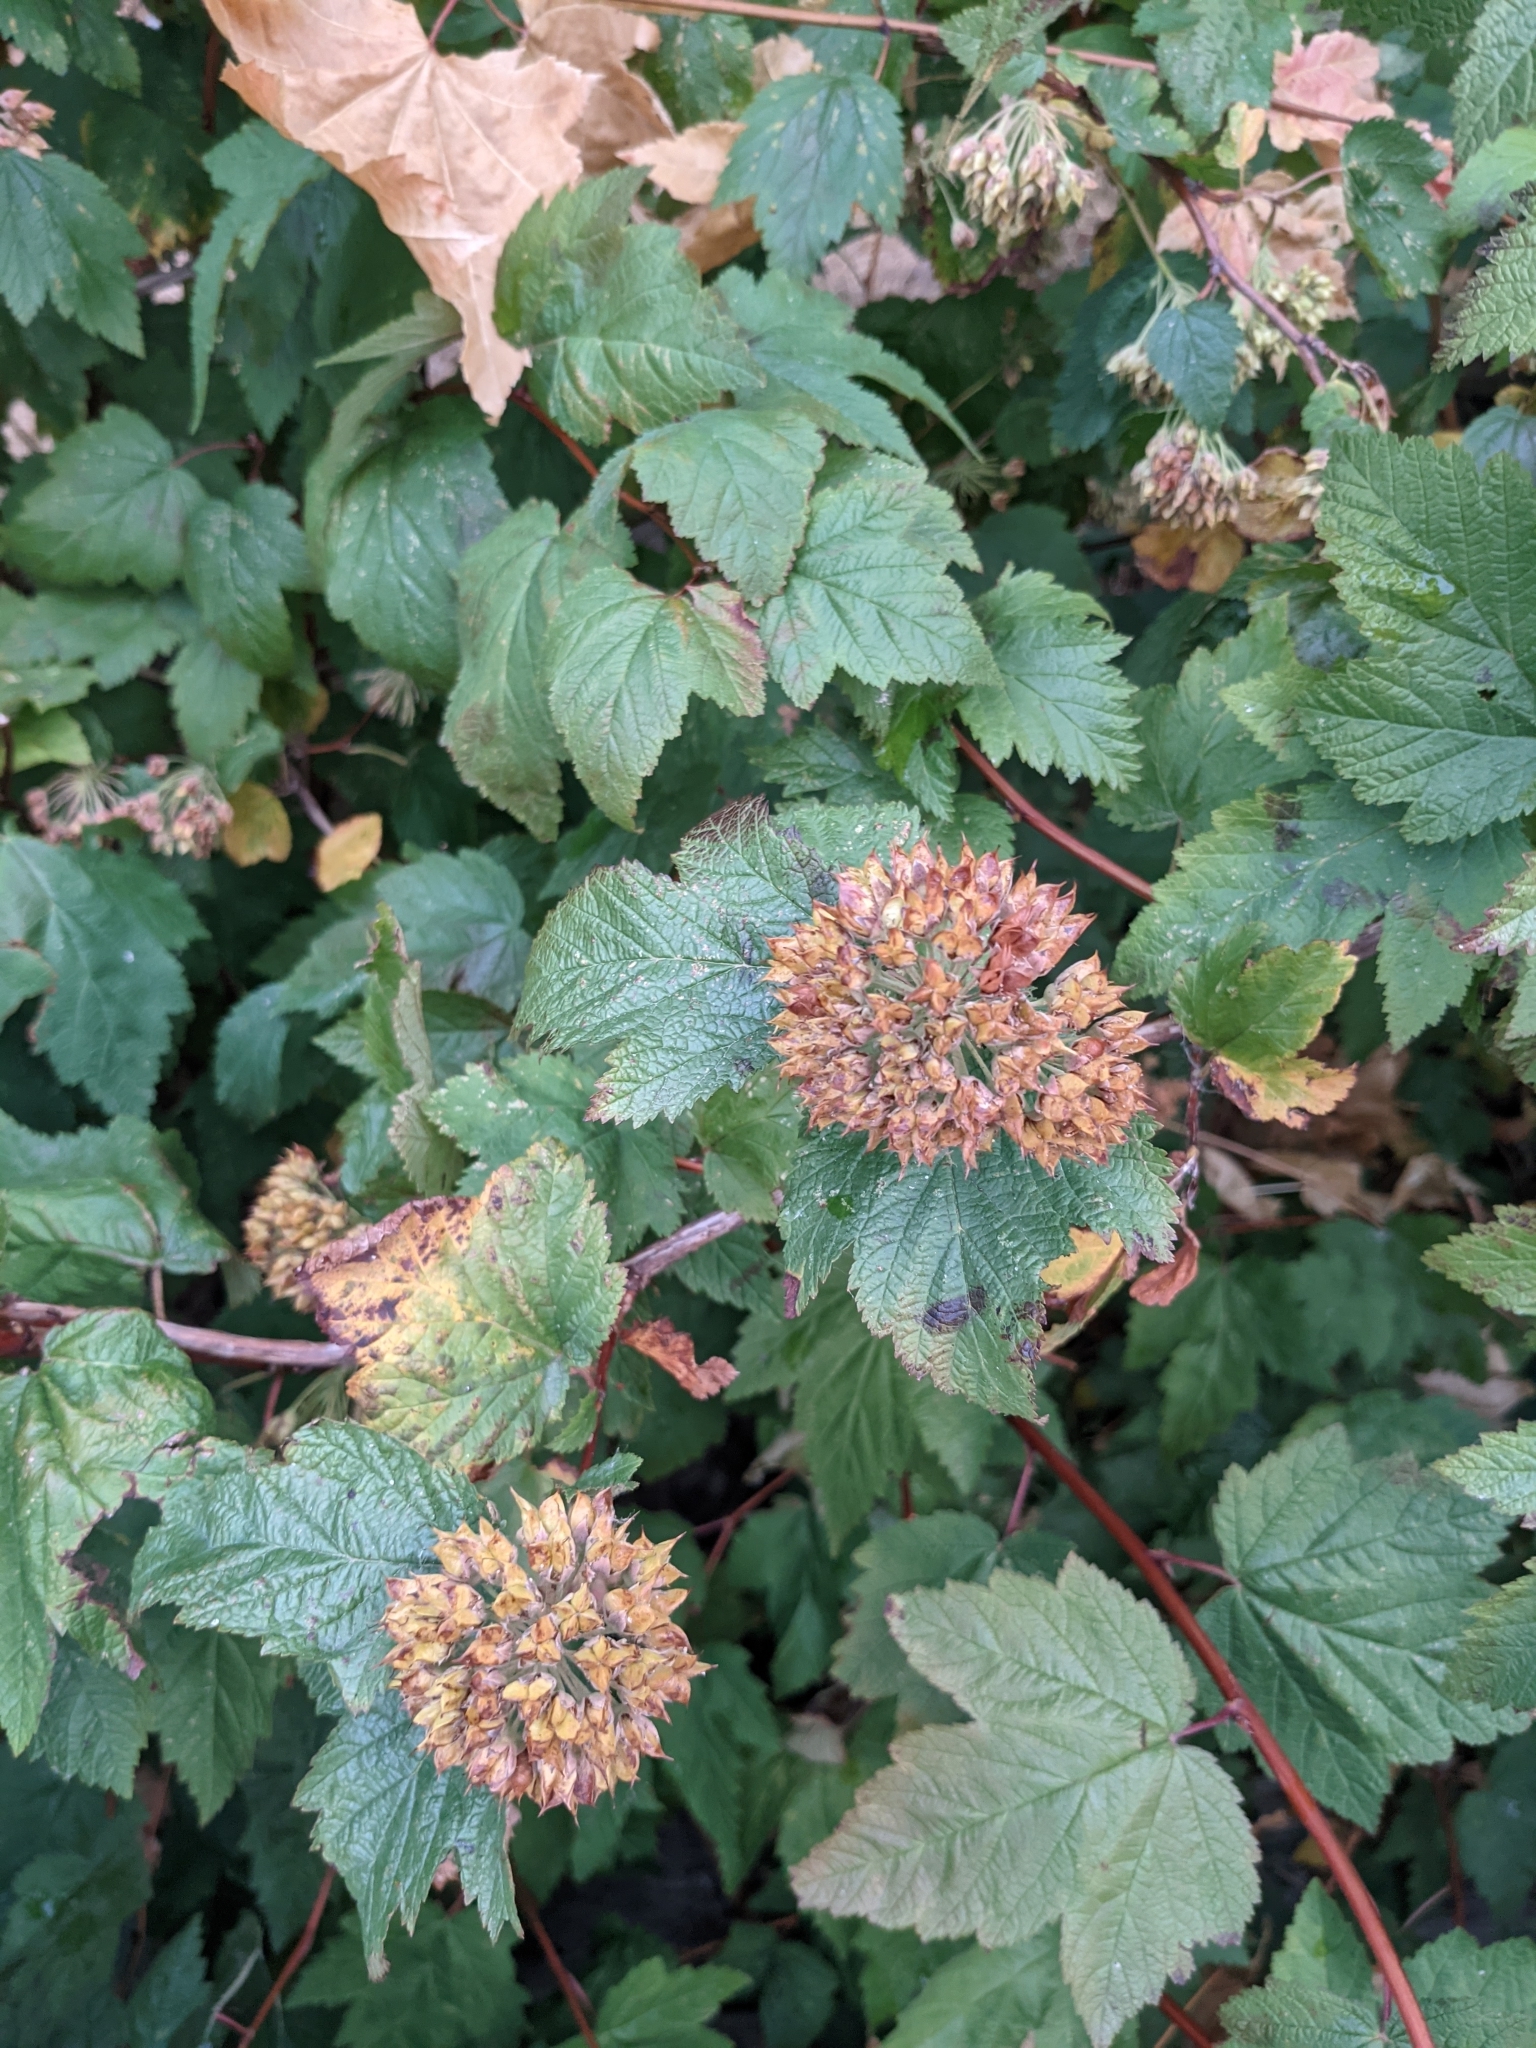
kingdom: Plantae
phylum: Tracheophyta
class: Magnoliopsida
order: Rosales
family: Rosaceae
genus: Physocarpus
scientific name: Physocarpus capitatus
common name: Pacific ninebark
